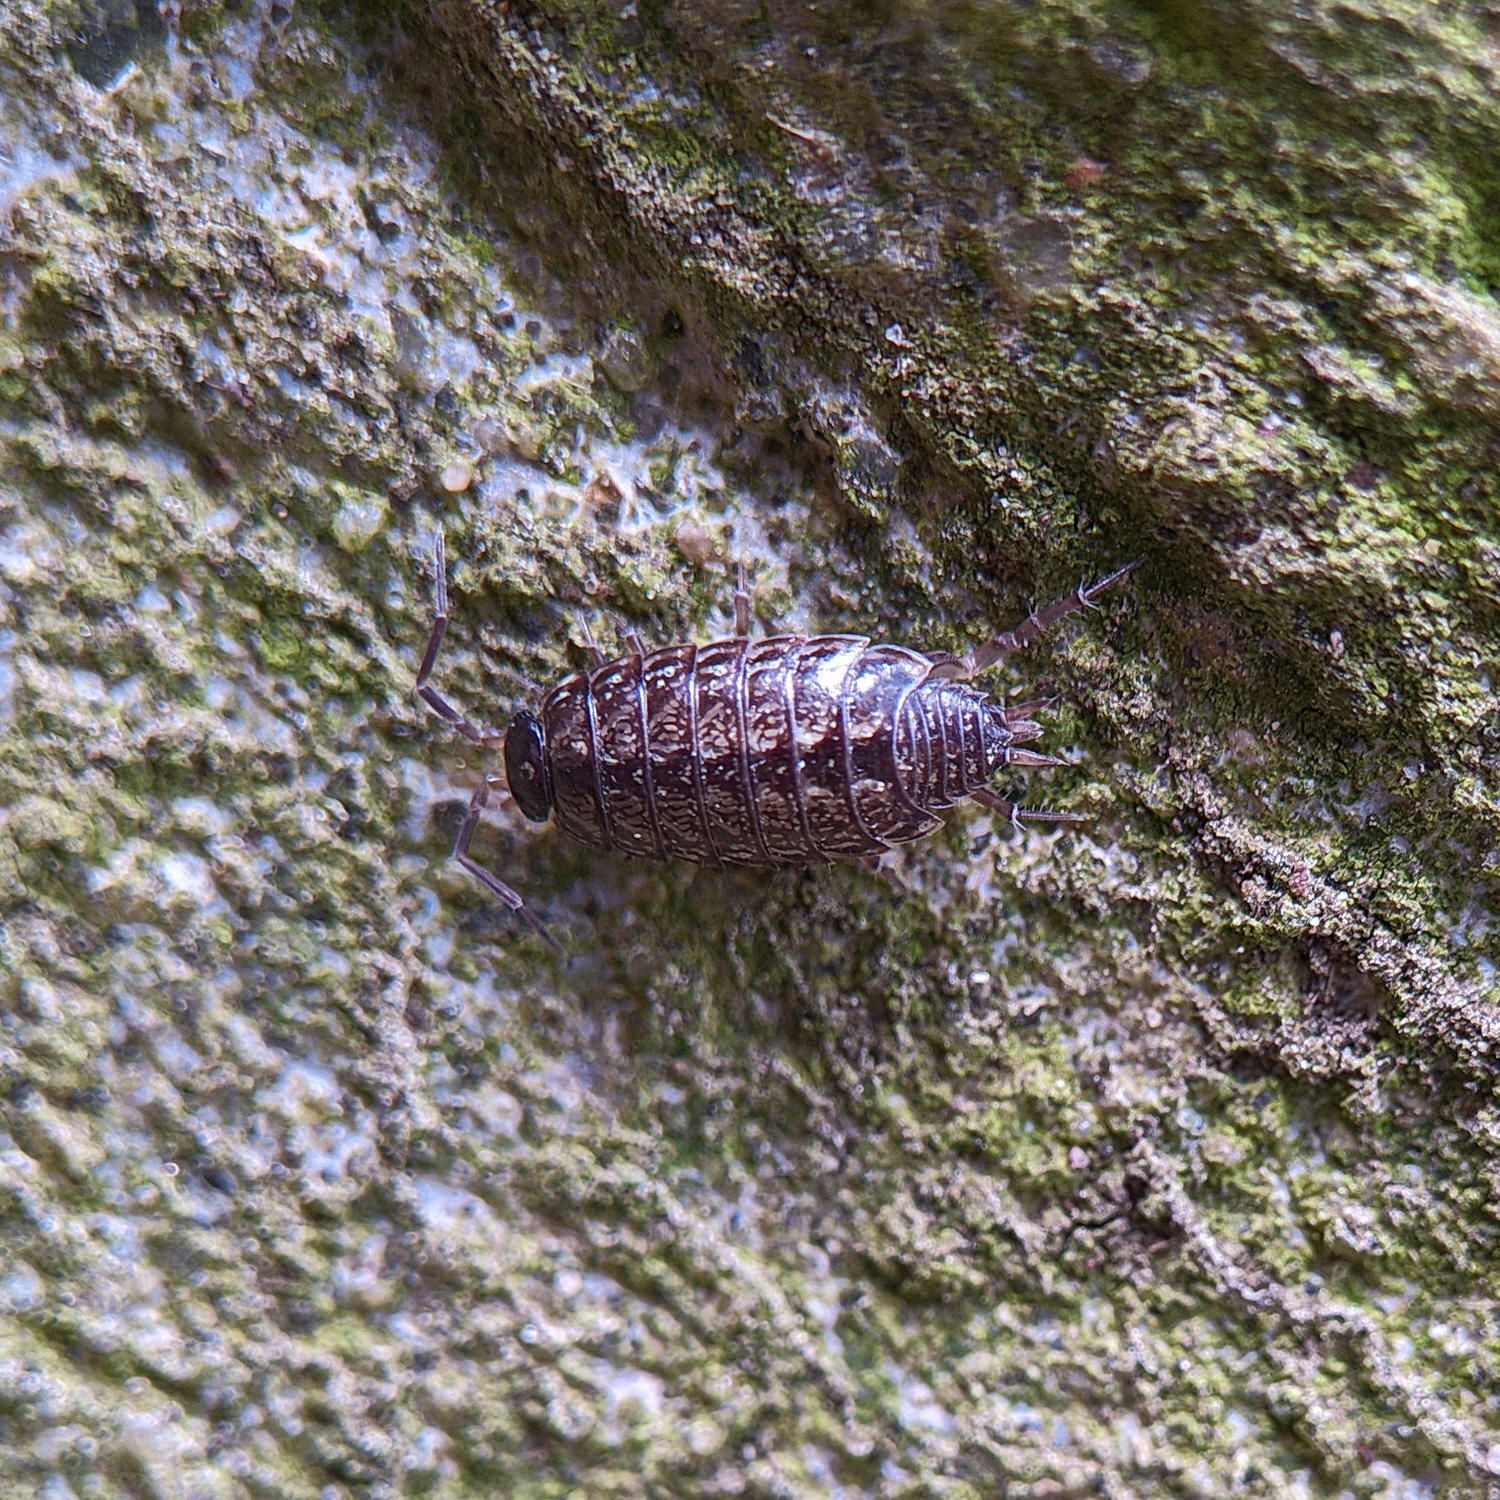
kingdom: Animalia
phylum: Arthropoda
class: Malacostraca
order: Isopoda
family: Philosciidae
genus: Philoscia
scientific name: Philoscia muscorum
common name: Common striped woodlouse
